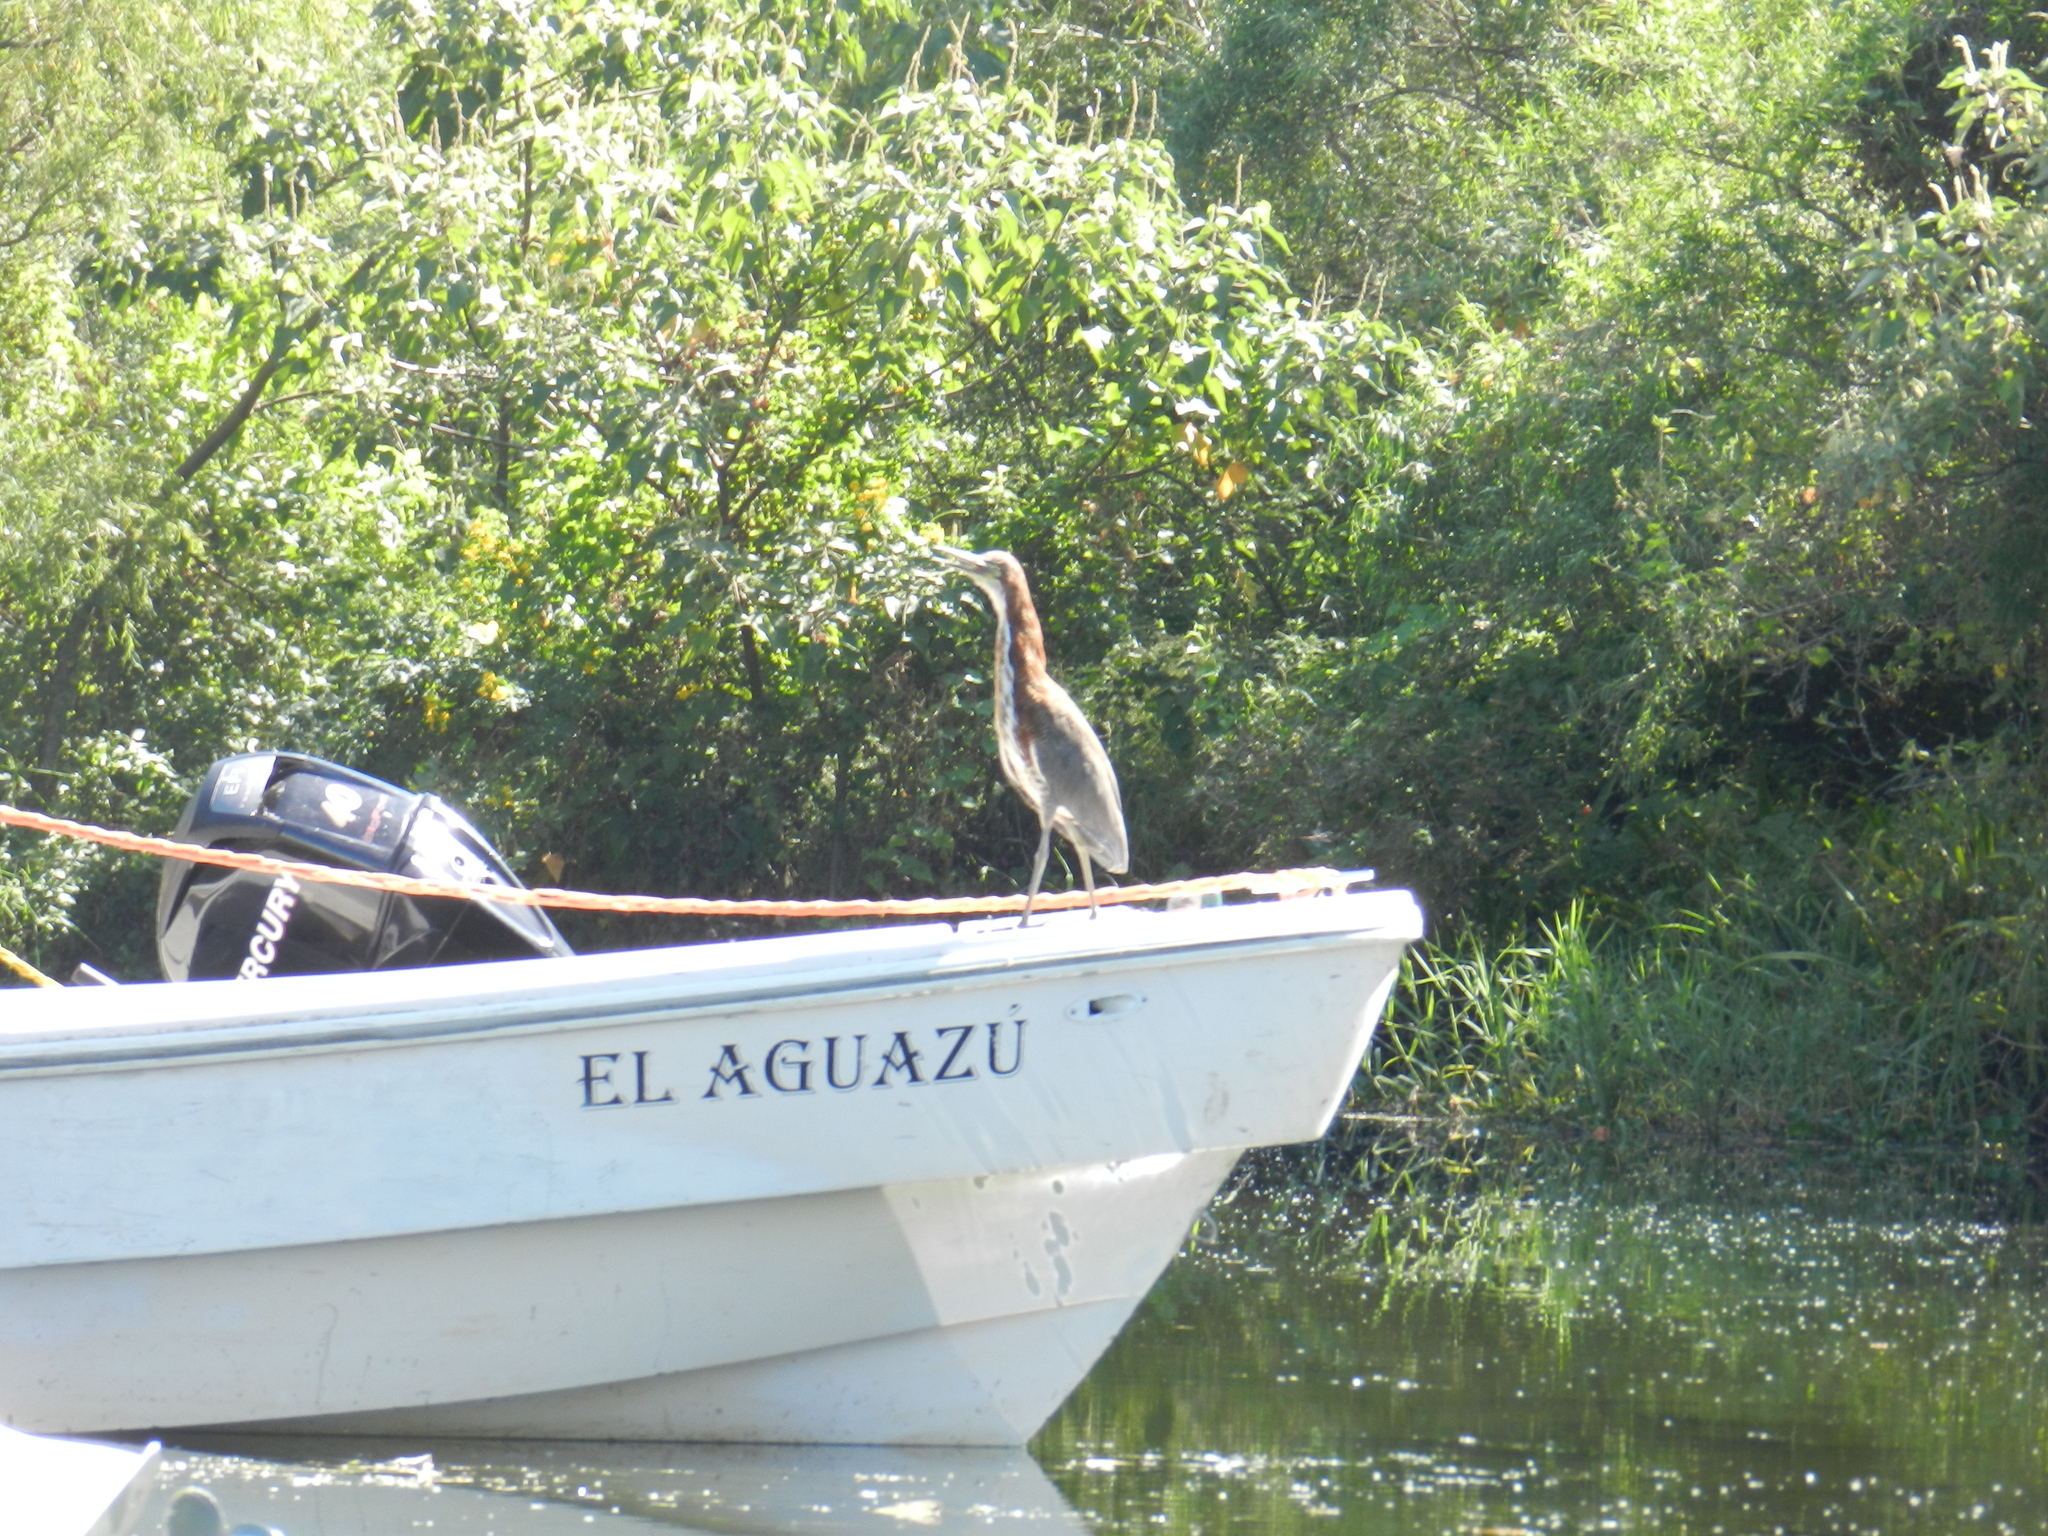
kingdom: Animalia
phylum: Chordata
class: Aves
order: Pelecaniformes
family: Ardeidae
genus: Tigrisoma
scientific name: Tigrisoma lineatum
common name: Rufescent tiger-heron
